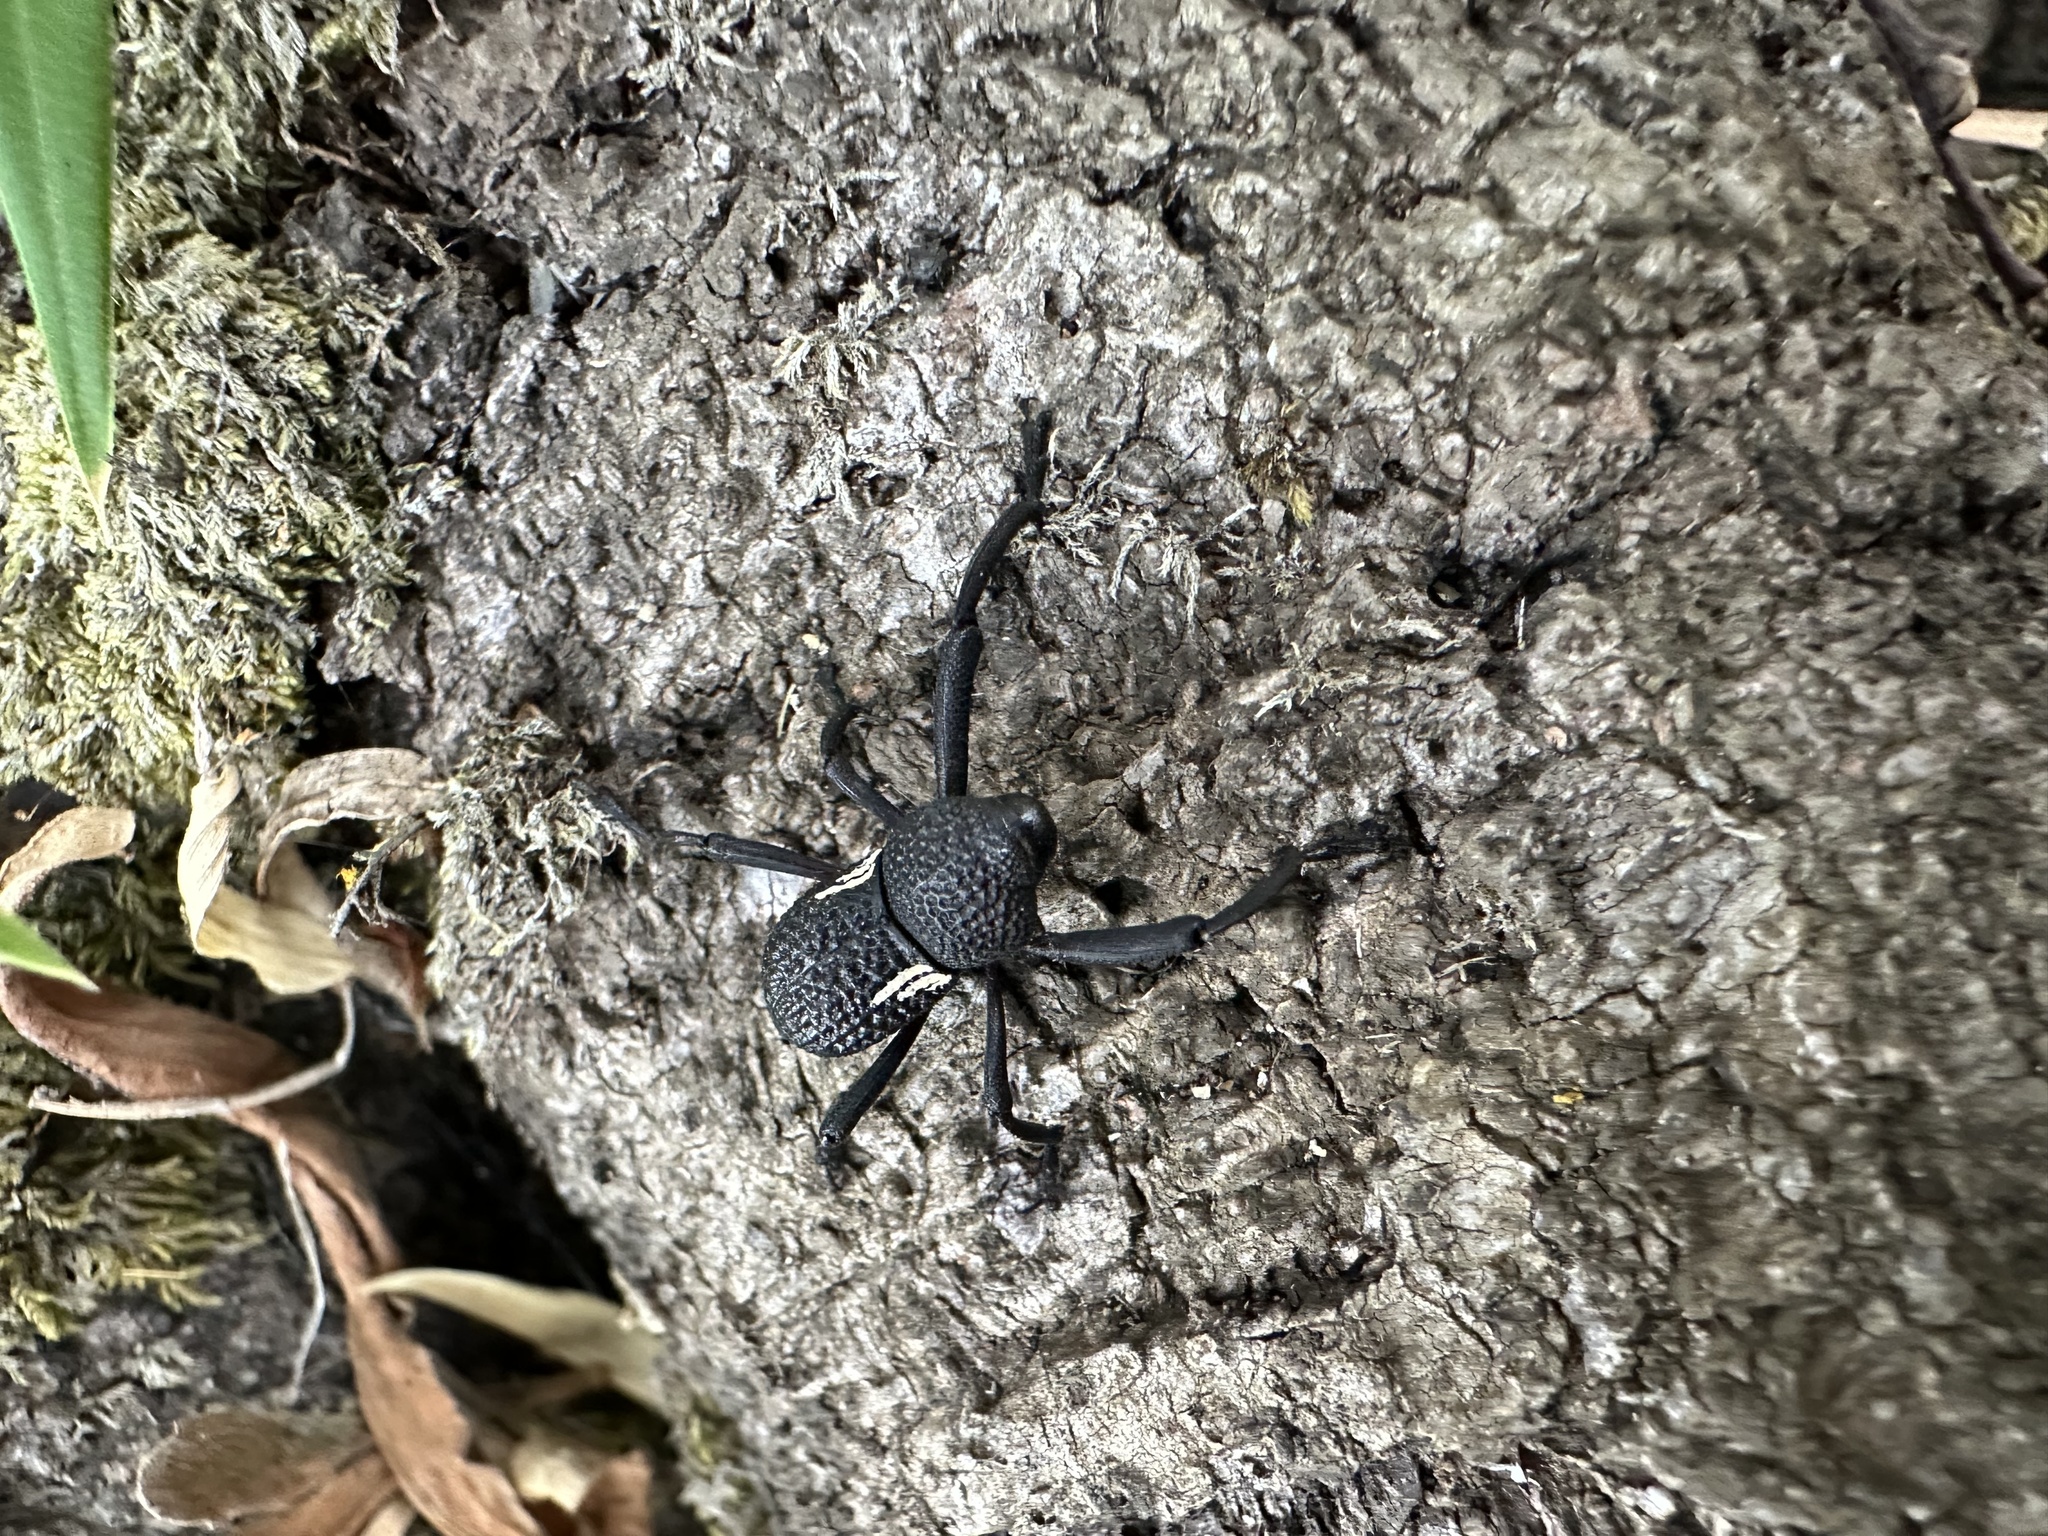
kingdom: Animalia
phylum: Arthropoda
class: Insecta
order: Coleoptera
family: Curculionidae
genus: Rhyephenes
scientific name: Rhyephenes humeralis
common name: Araè±ita chilena del pino
